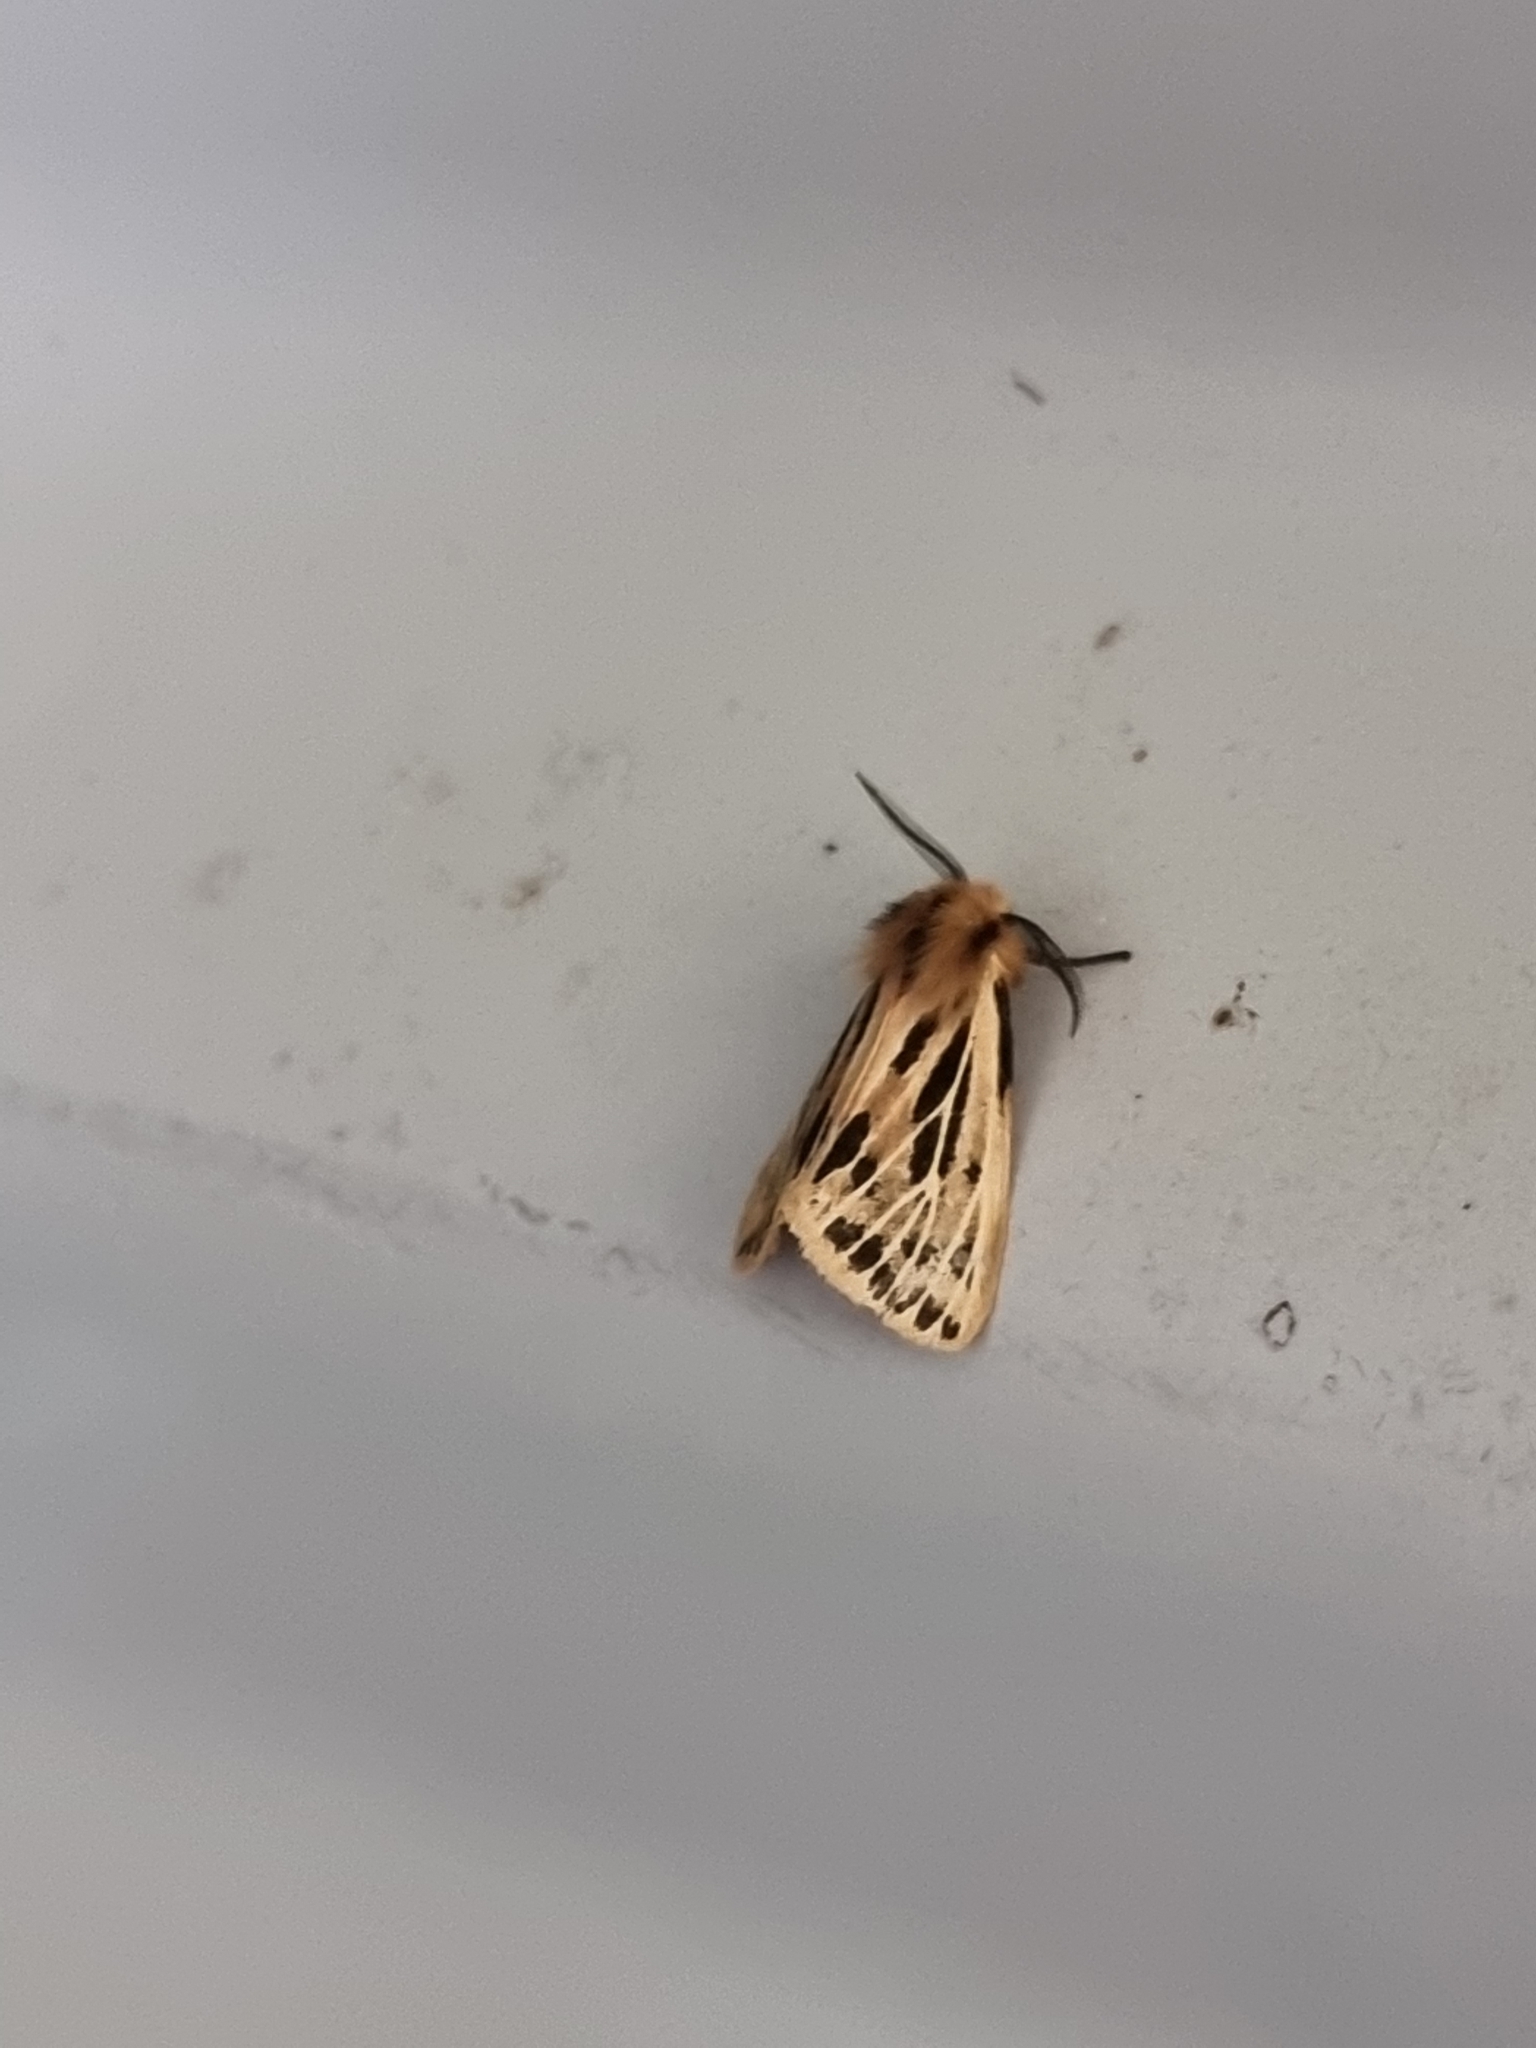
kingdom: Animalia
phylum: Arthropoda
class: Insecta
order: Lepidoptera
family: Erebidae
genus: Ardices
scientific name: Ardices curvata
